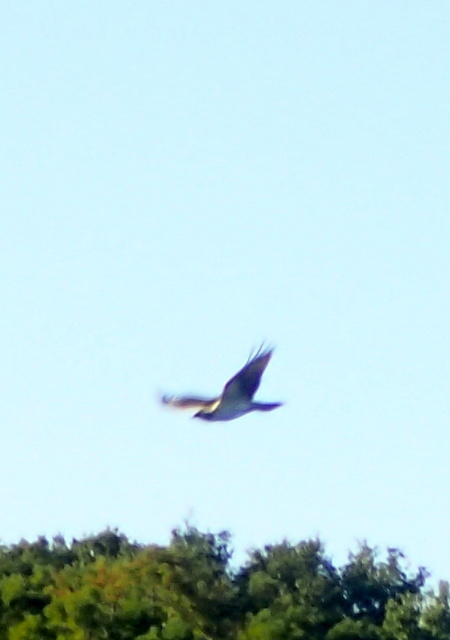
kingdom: Animalia
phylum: Chordata
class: Aves
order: Accipitriformes
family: Pandionidae
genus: Pandion
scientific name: Pandion haliaetus
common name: Osprey
